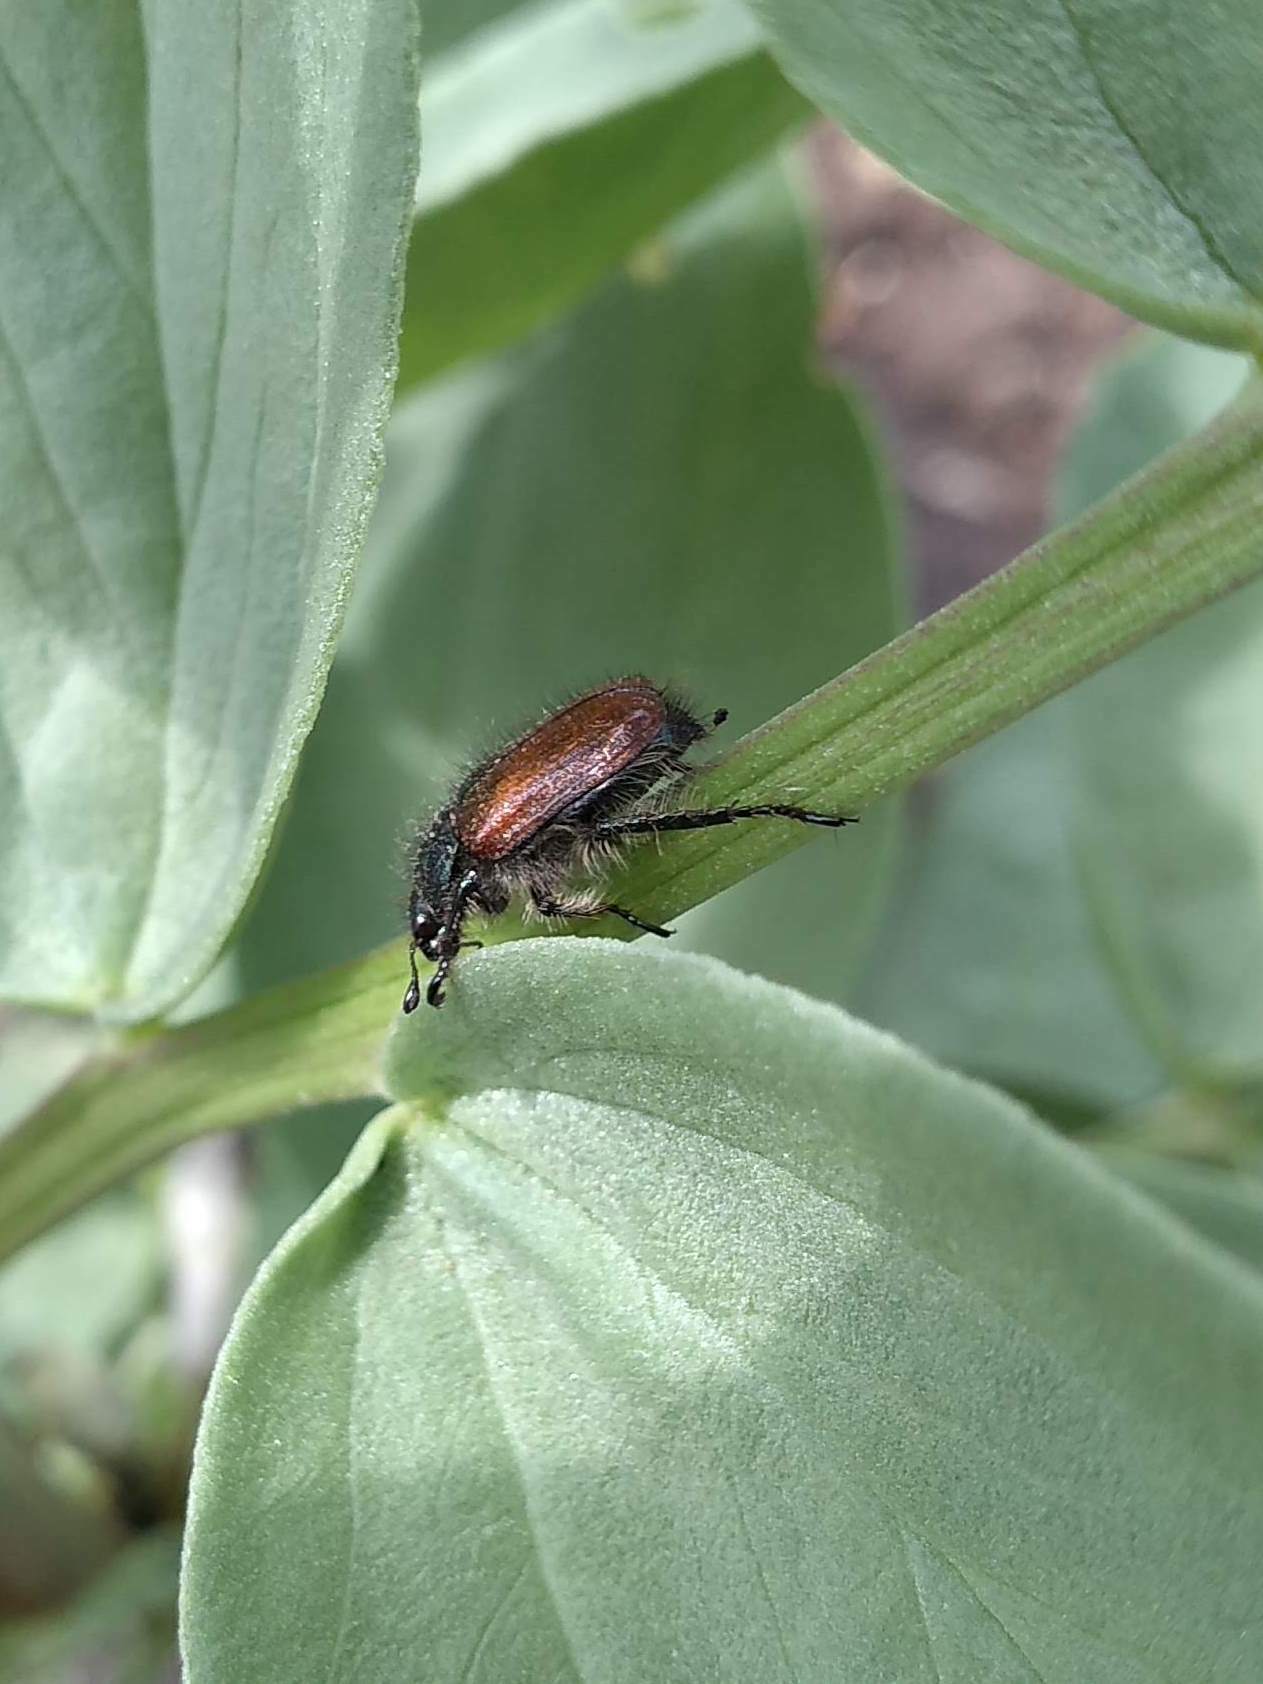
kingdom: Animalia
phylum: Arthropoda
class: Insecta
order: Coleoptera
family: Scarabaeidae
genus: Phyllopertha
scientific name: Phyllopertha horticola
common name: Garden chafer
